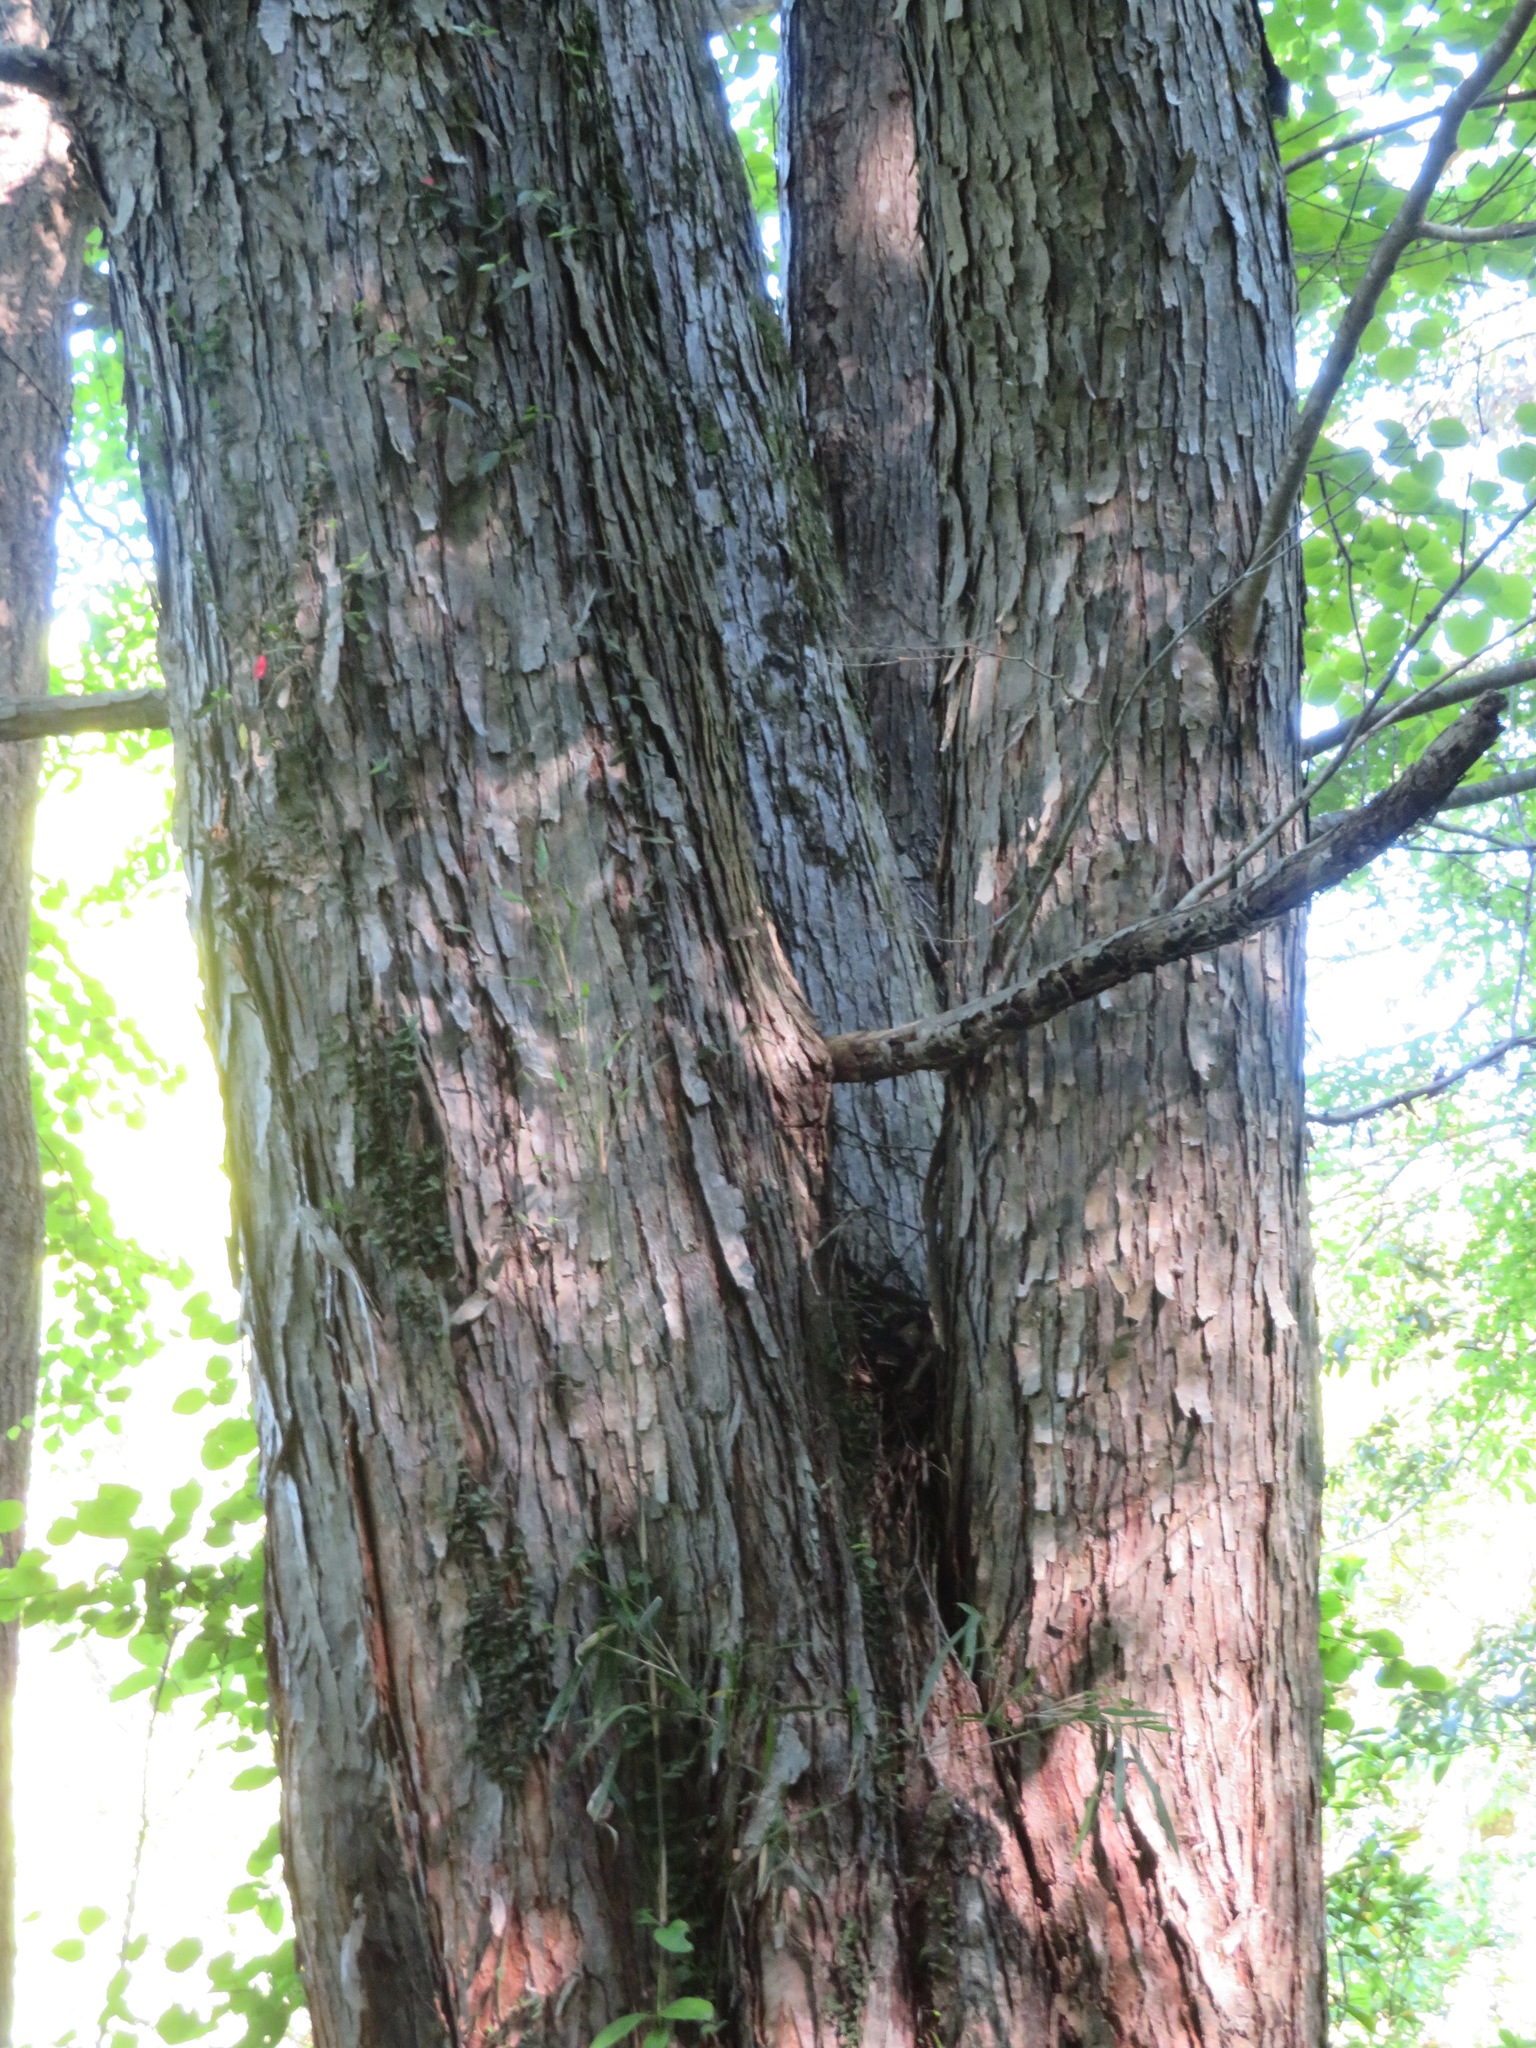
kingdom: Plantae
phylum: Tracheophyta
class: Magnoliopsida
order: Saxifragales
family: Cercidiphyllaceae
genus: Cercidiphyllum
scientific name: Cercidiphyllum japonicum
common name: Katsura tree
